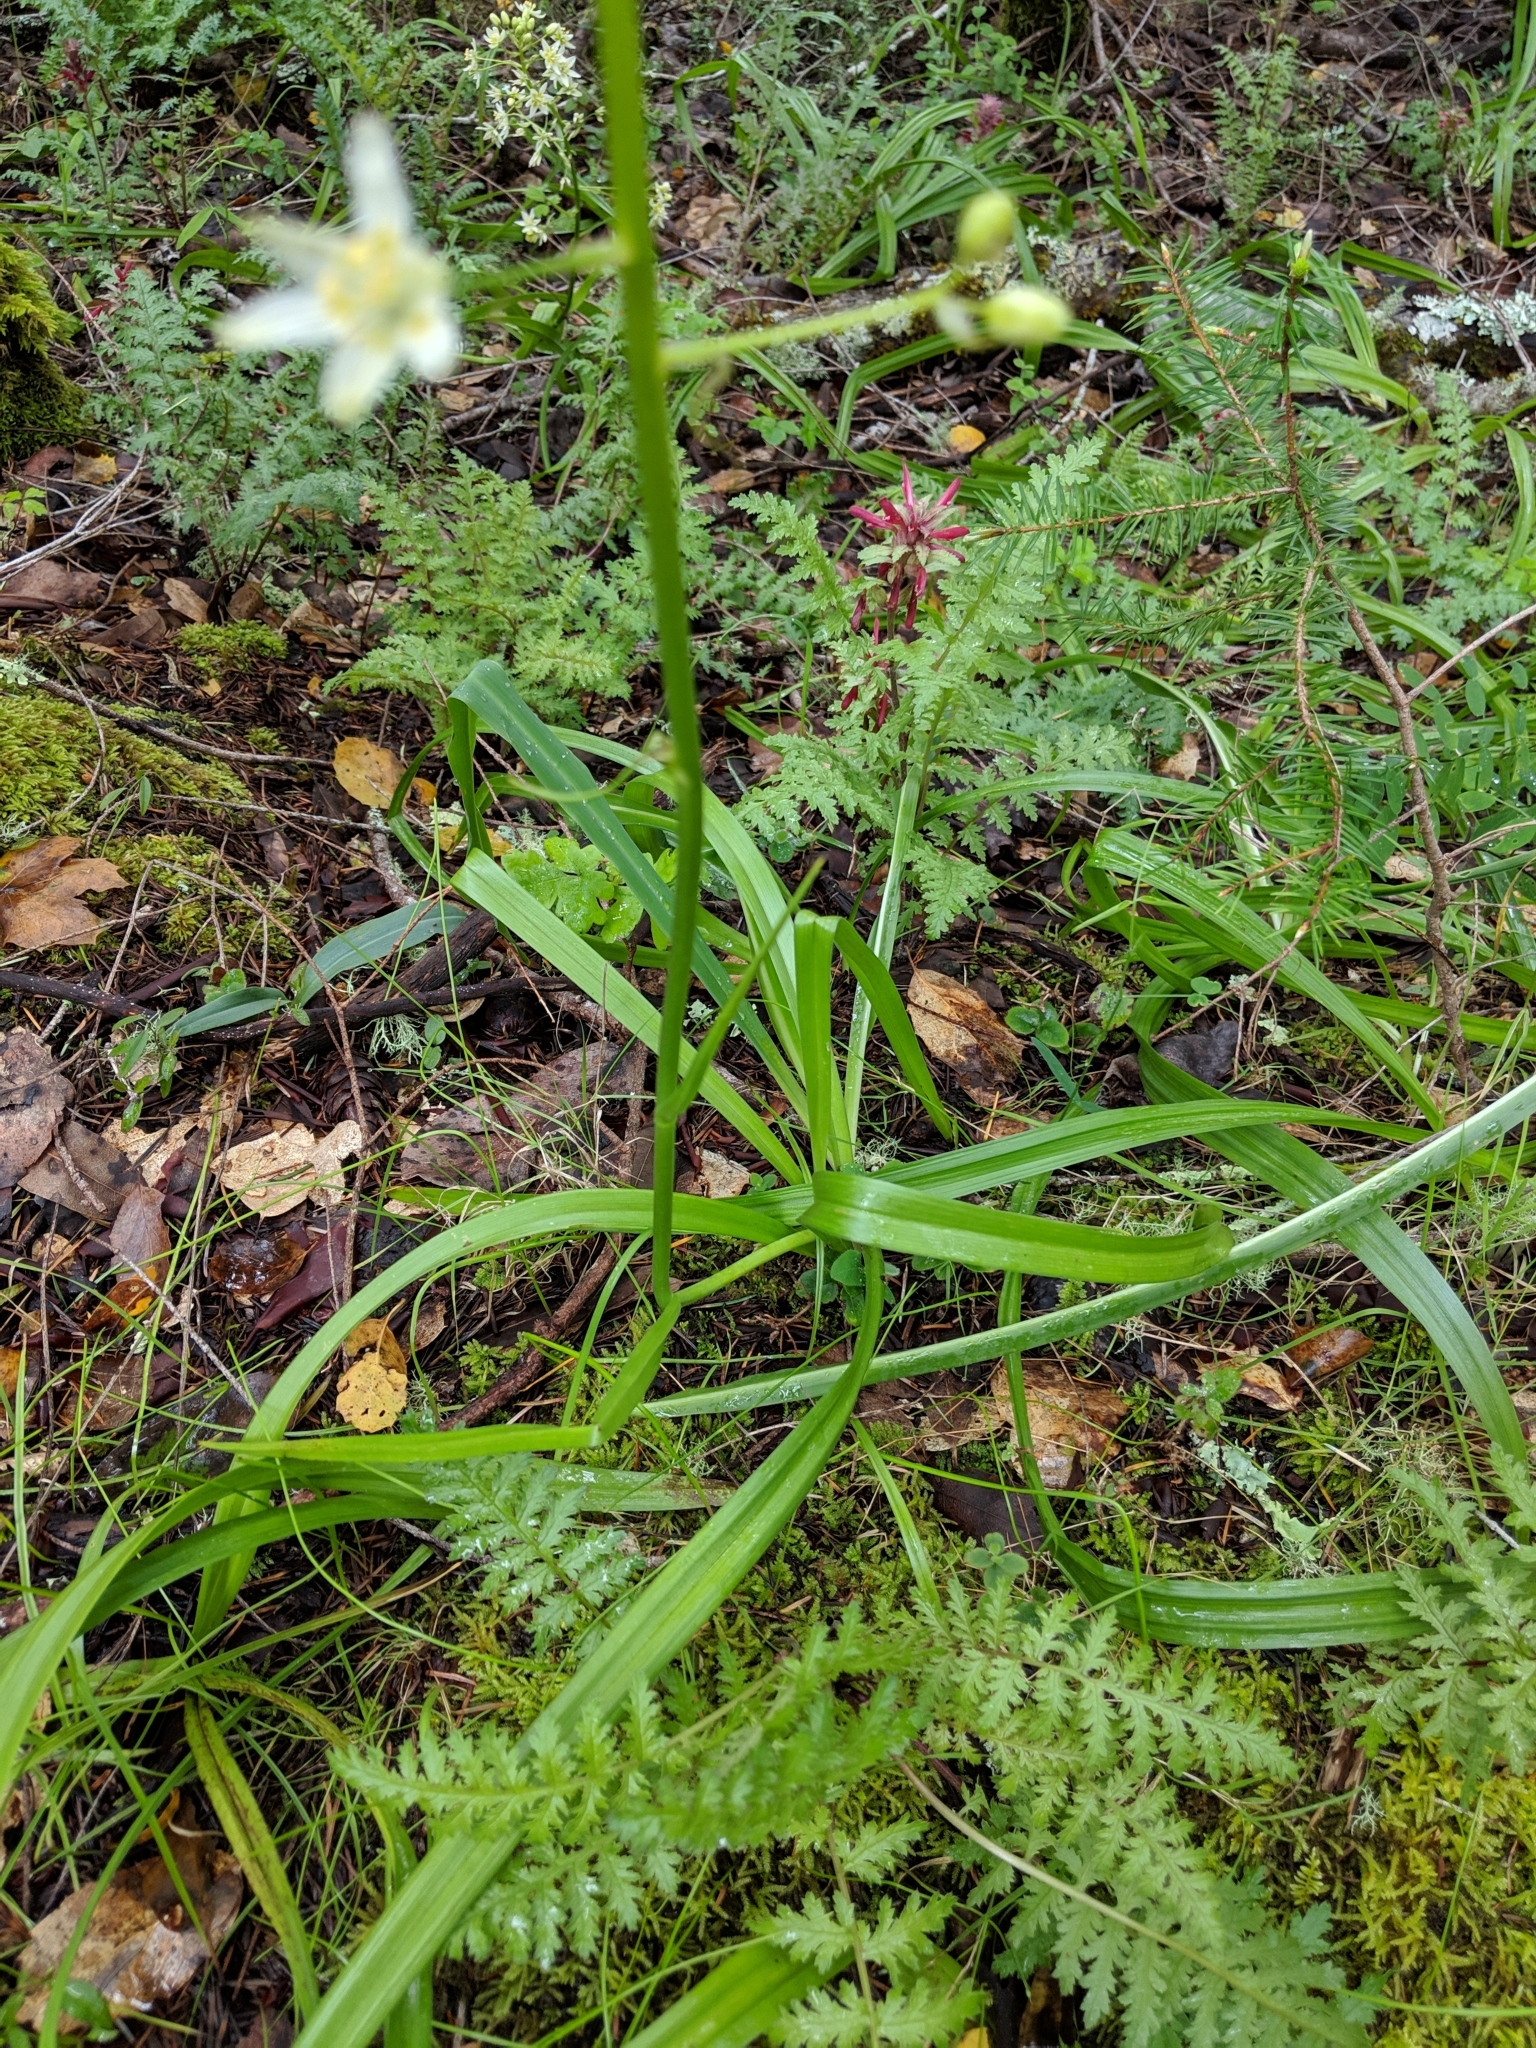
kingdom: Plantae
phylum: Tracheophyta
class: Liliopsida
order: Liliales
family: Melanthiaceae
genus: Toxicoscordion
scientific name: Toxicoscordion fremontii
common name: Fremont's death camas
